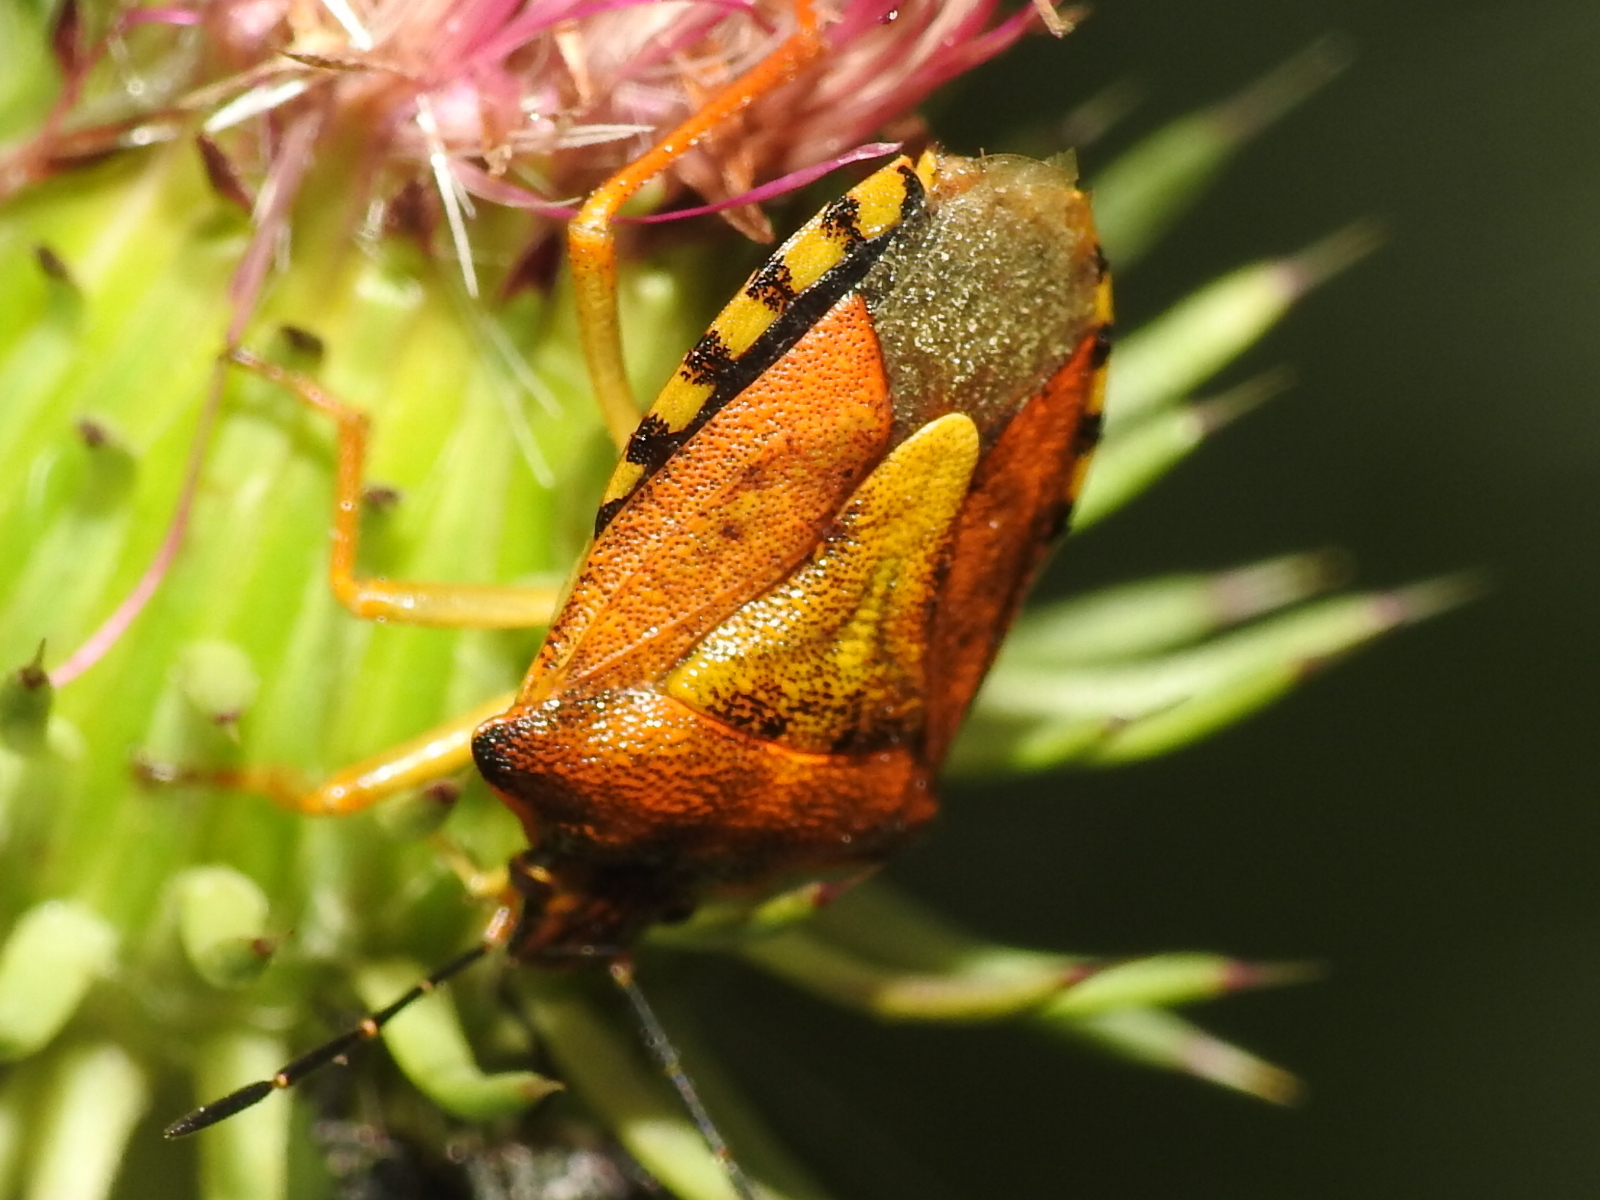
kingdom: Animalia
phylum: Arthropoda
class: Insecta
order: Hemiptera
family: Pentatomidae
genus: Carpocoris
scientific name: Carpocoris purpureipennis
